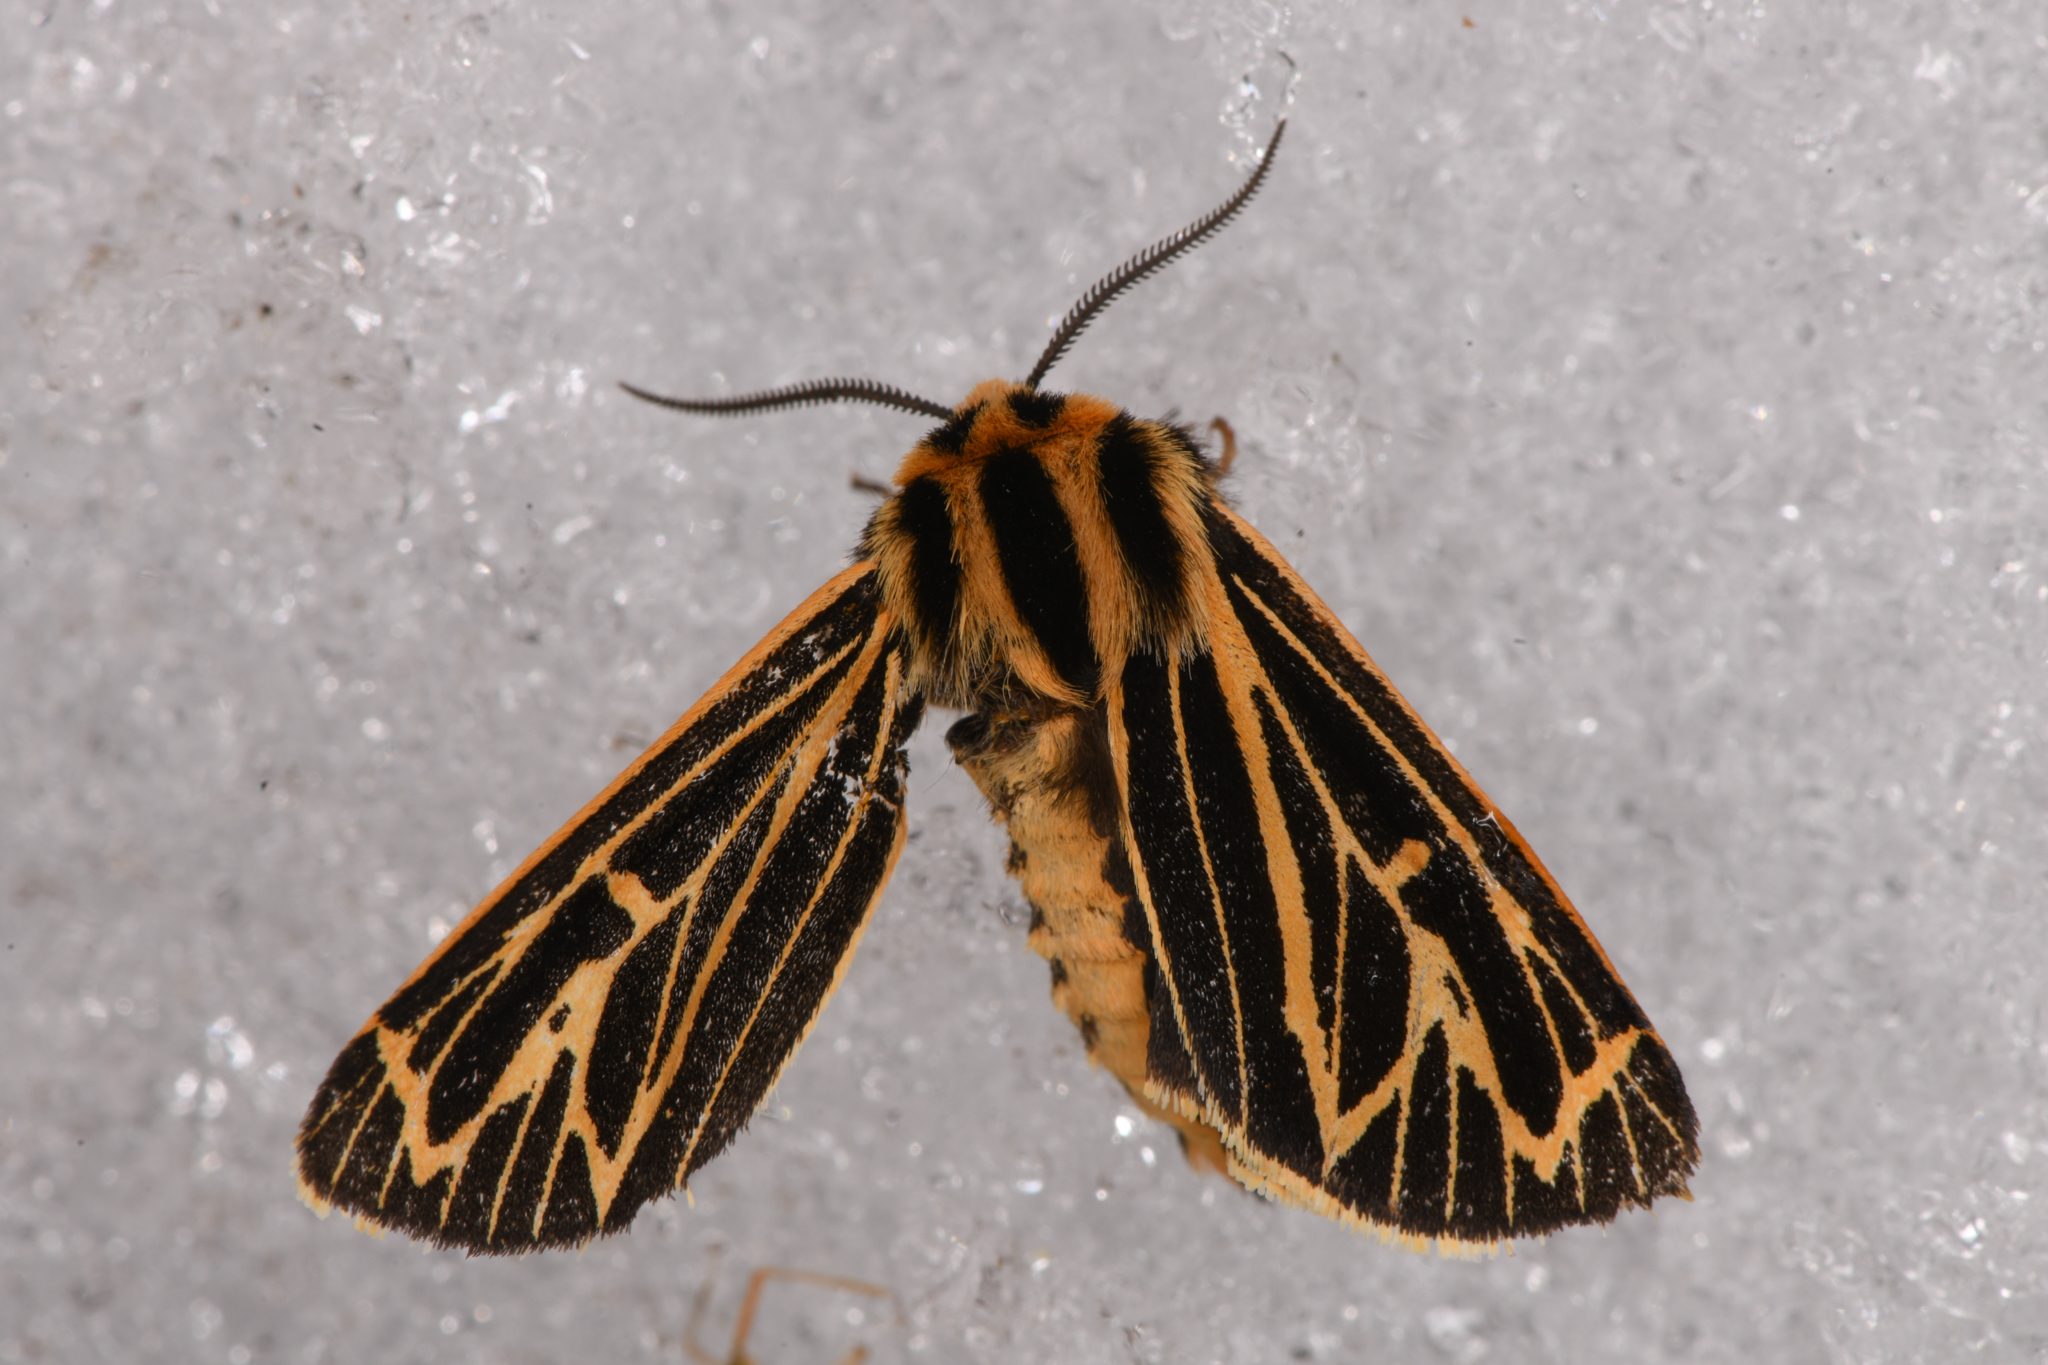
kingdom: Animalia
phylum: Arthropoda
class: Insecta
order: Lepidoptera
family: Erebidae
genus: Apantesis
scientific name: Apantesis
